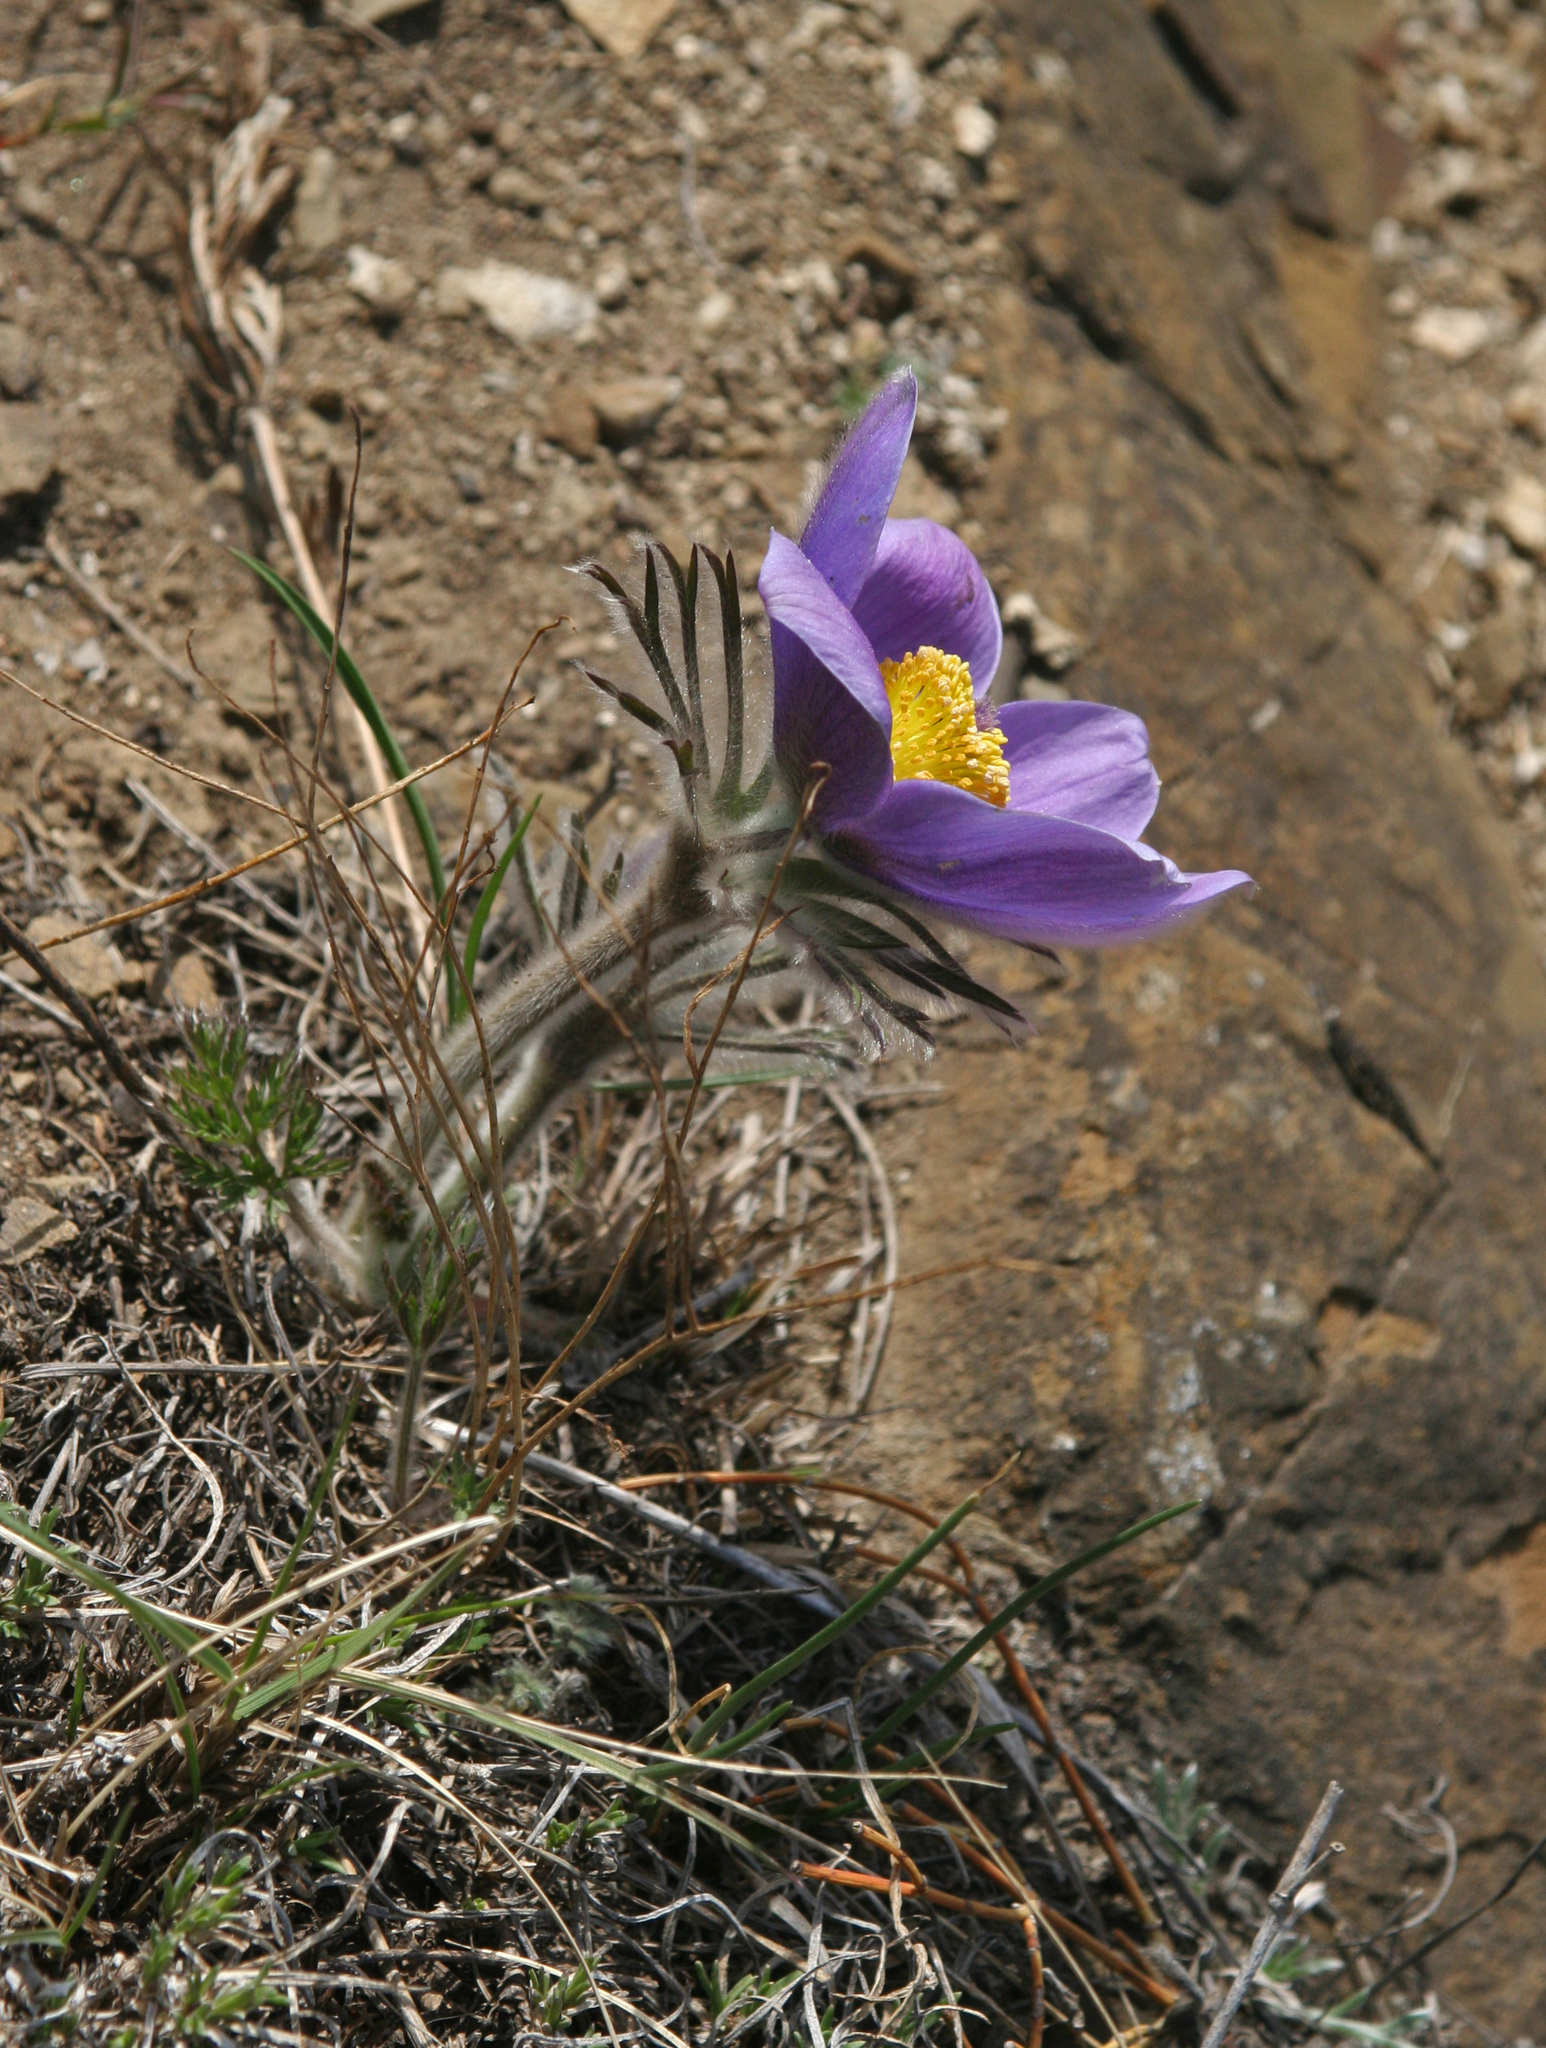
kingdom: Plantae
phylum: Tracheophyta
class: Magnoliopsida
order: Ranunculales
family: Ranunculaceae
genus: Pulsatilla
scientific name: Pulsatilla turczaninovii
